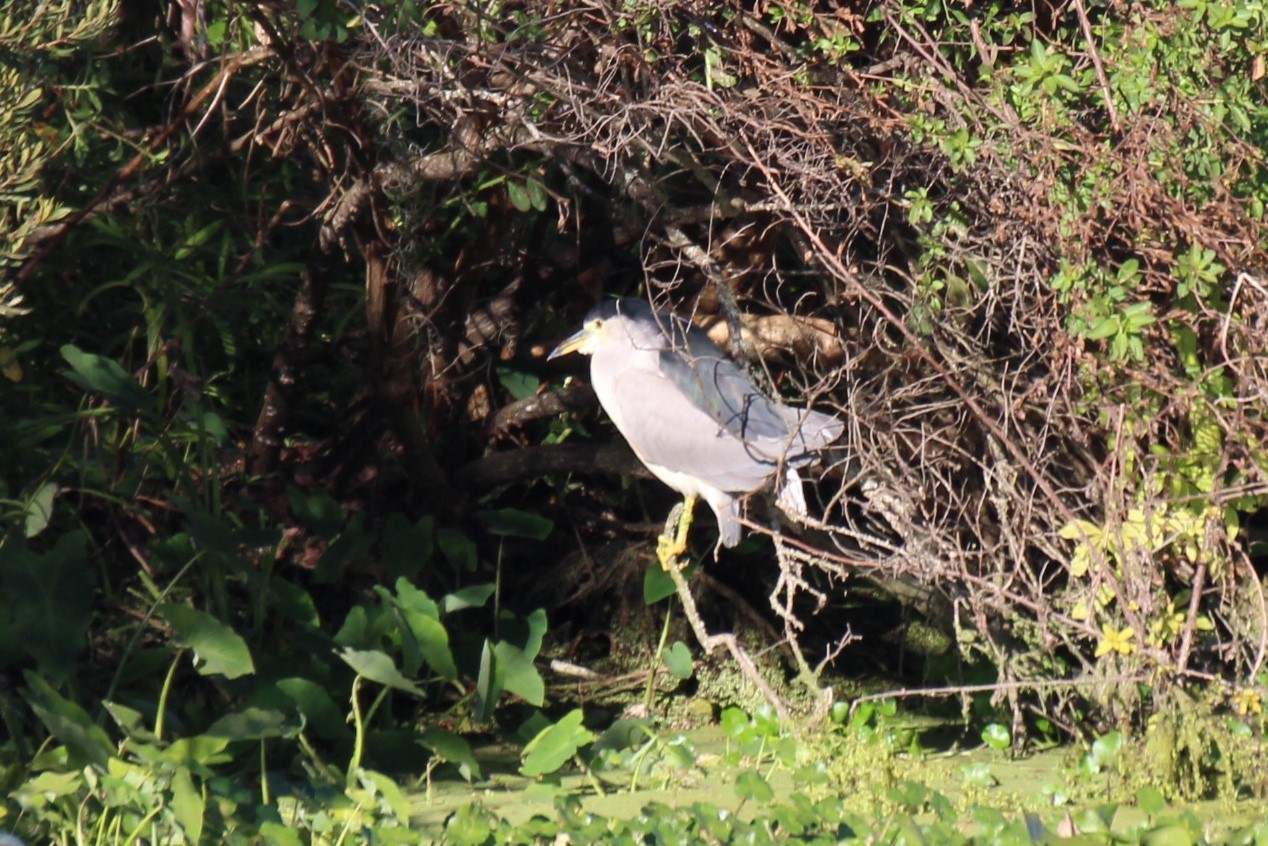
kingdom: Animalia
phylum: Chordata
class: Aves
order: Pelecaniformes
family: Ardeidae
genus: Nycticorax
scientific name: Nycticorax nycticorax
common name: Black-crowned night heron
